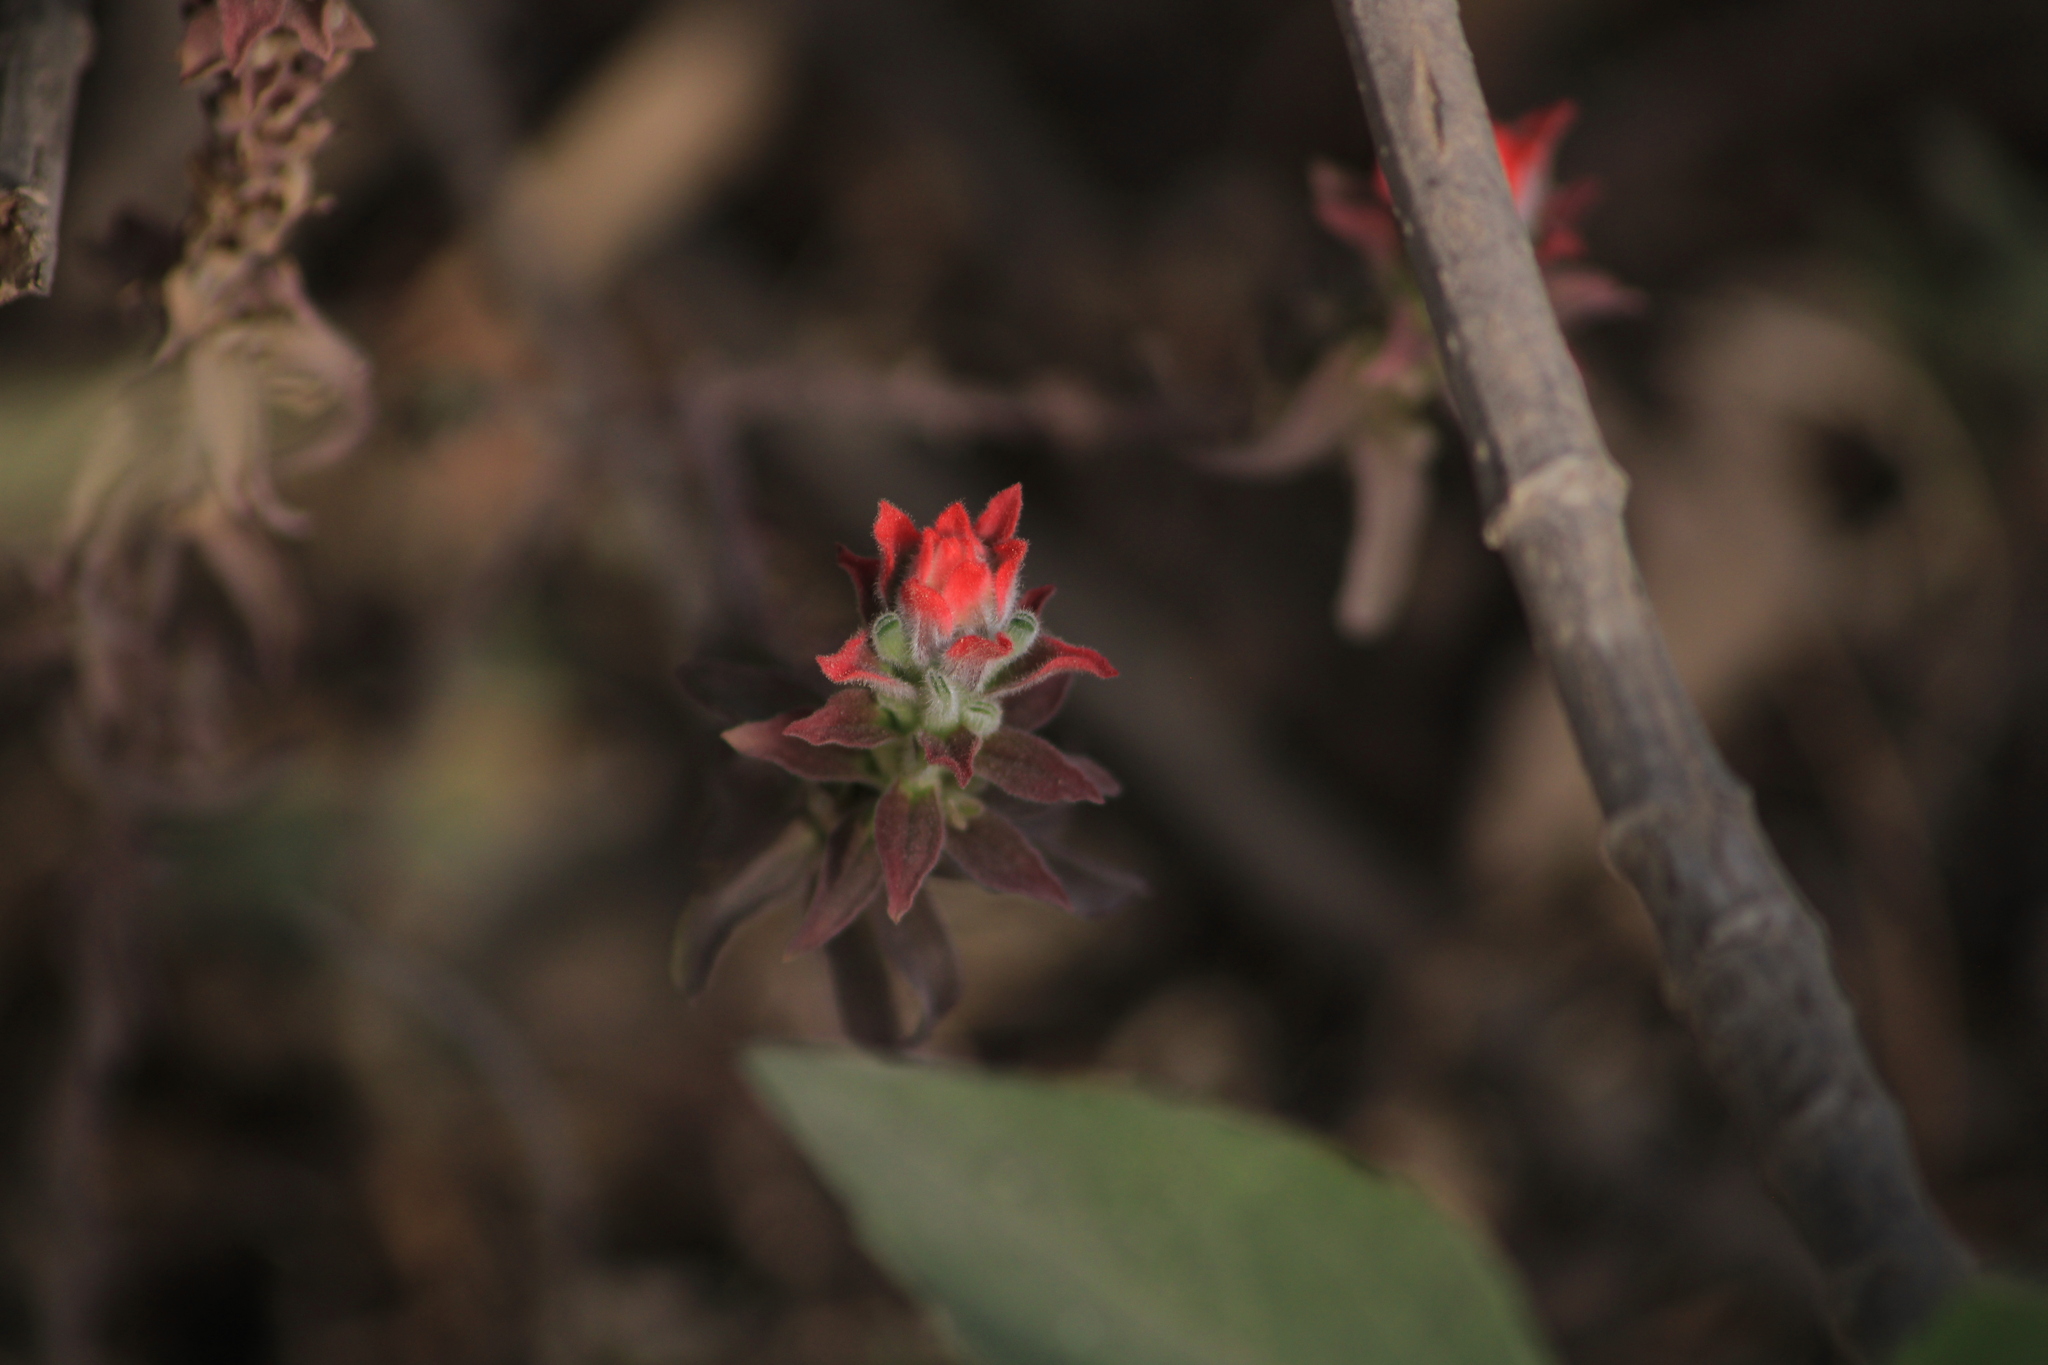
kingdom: Plantae
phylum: Tracheophyta
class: Magnoliopsida
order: Lamiales
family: Orobanchaceae
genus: Castilleja
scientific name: Castilleja arvensis
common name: Indian paintbrush
